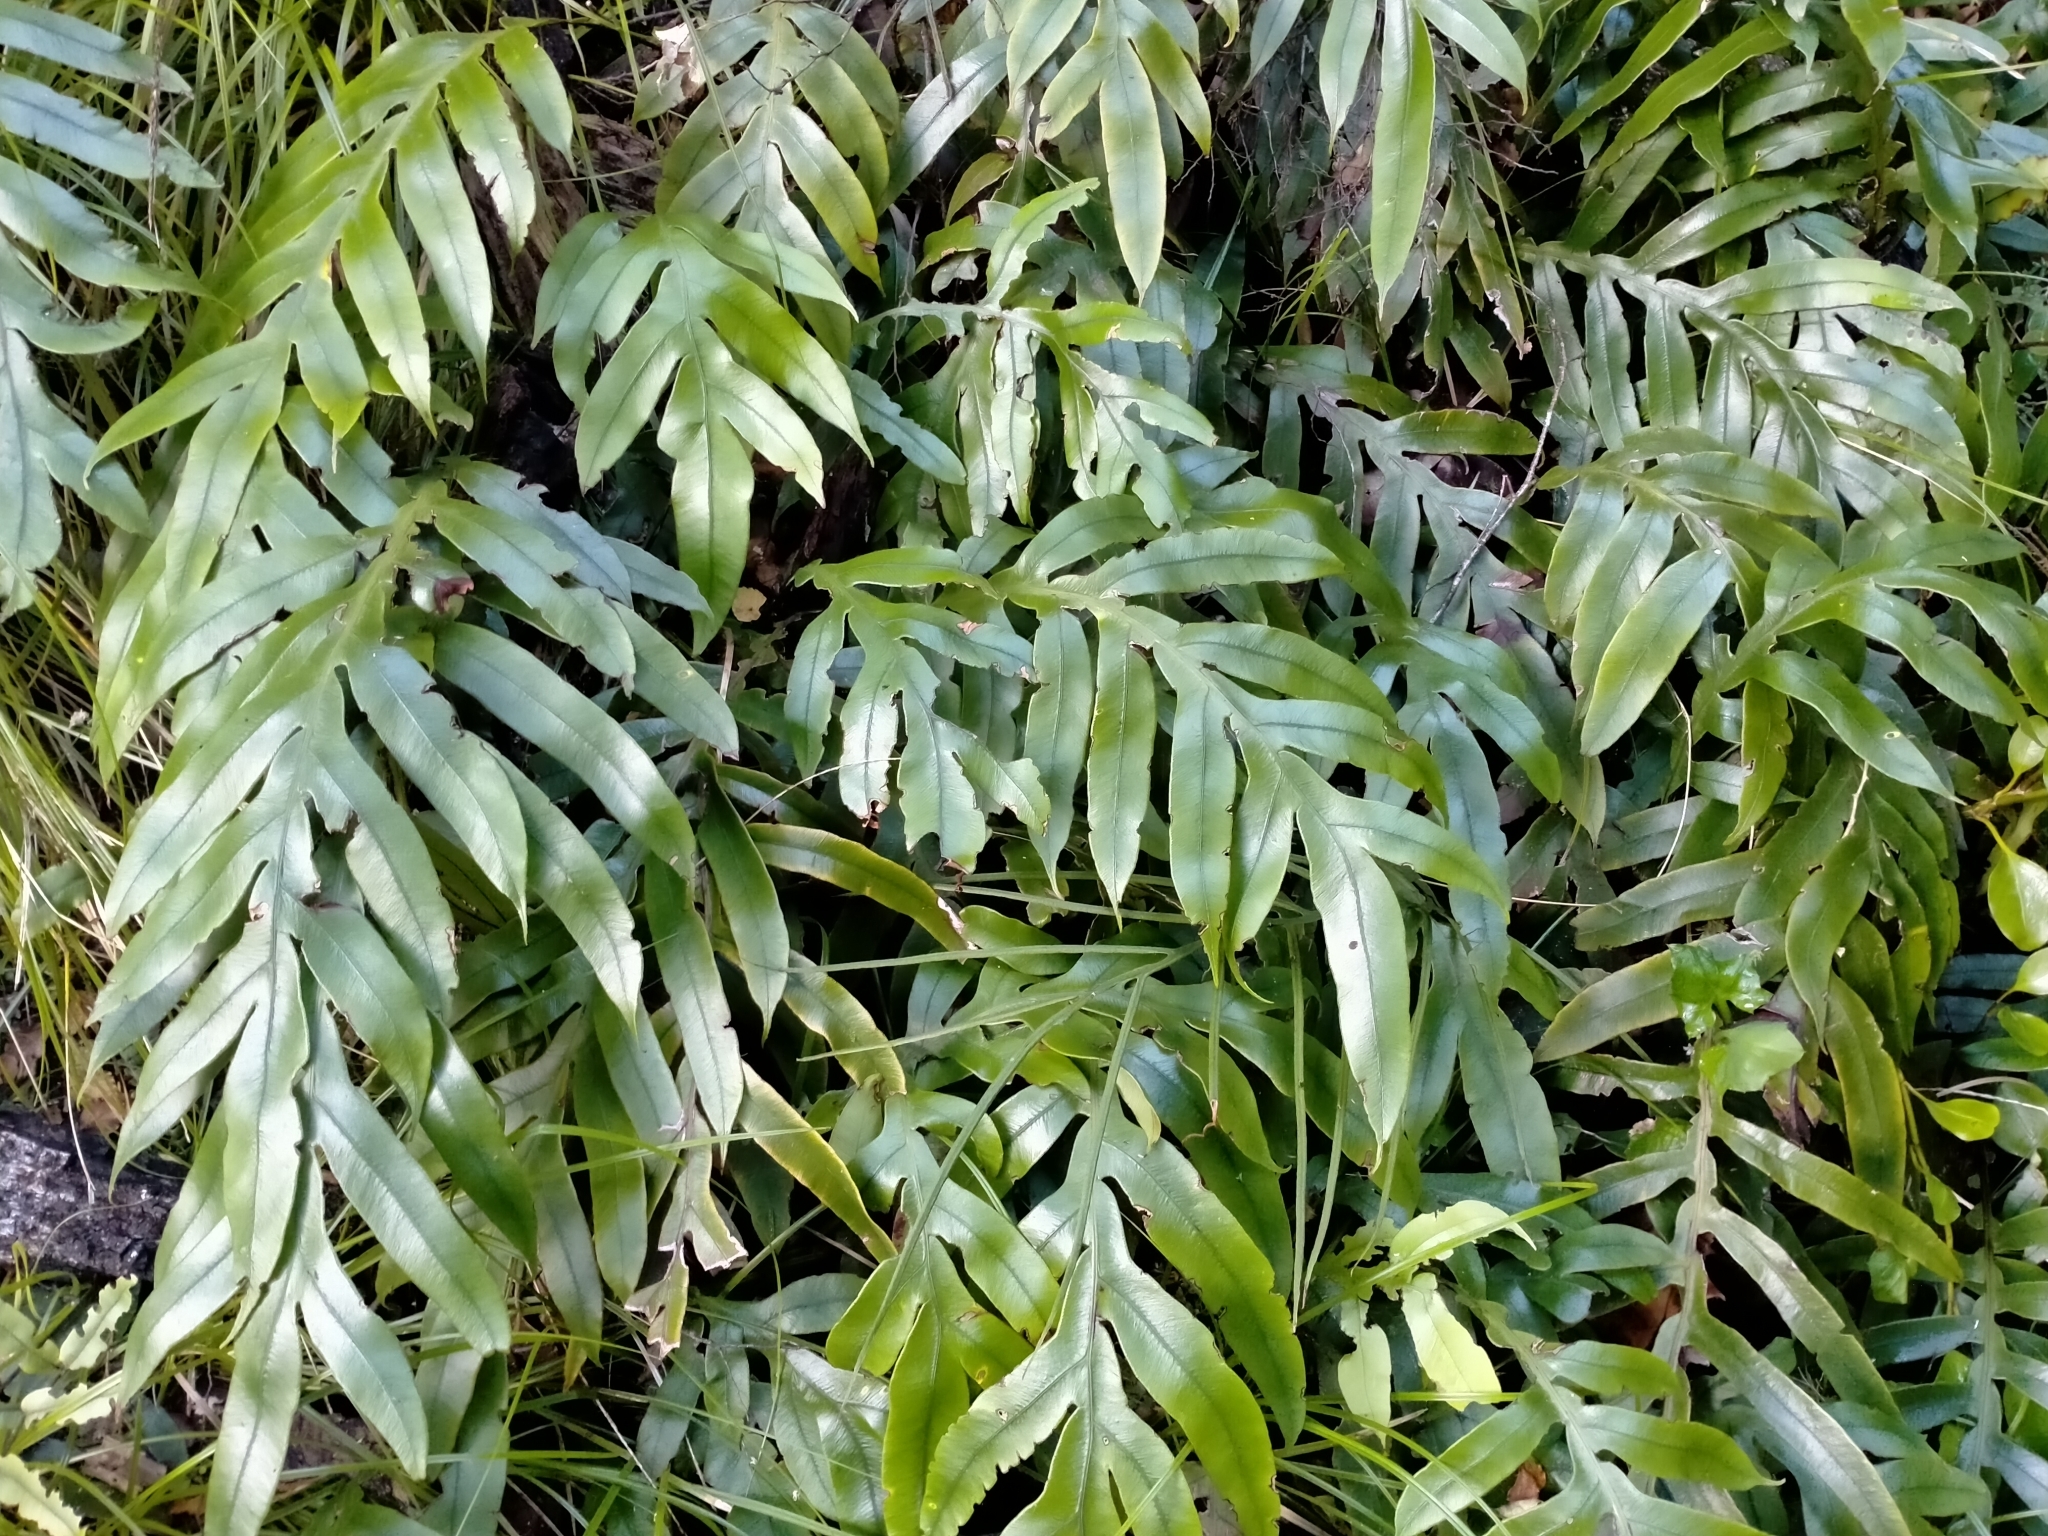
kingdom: Plantae
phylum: Tracheophyta
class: Polypodiopsida
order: Polypodiales
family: Blechnaceae
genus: Austroblechnum
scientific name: Austroblechnum colensoi
